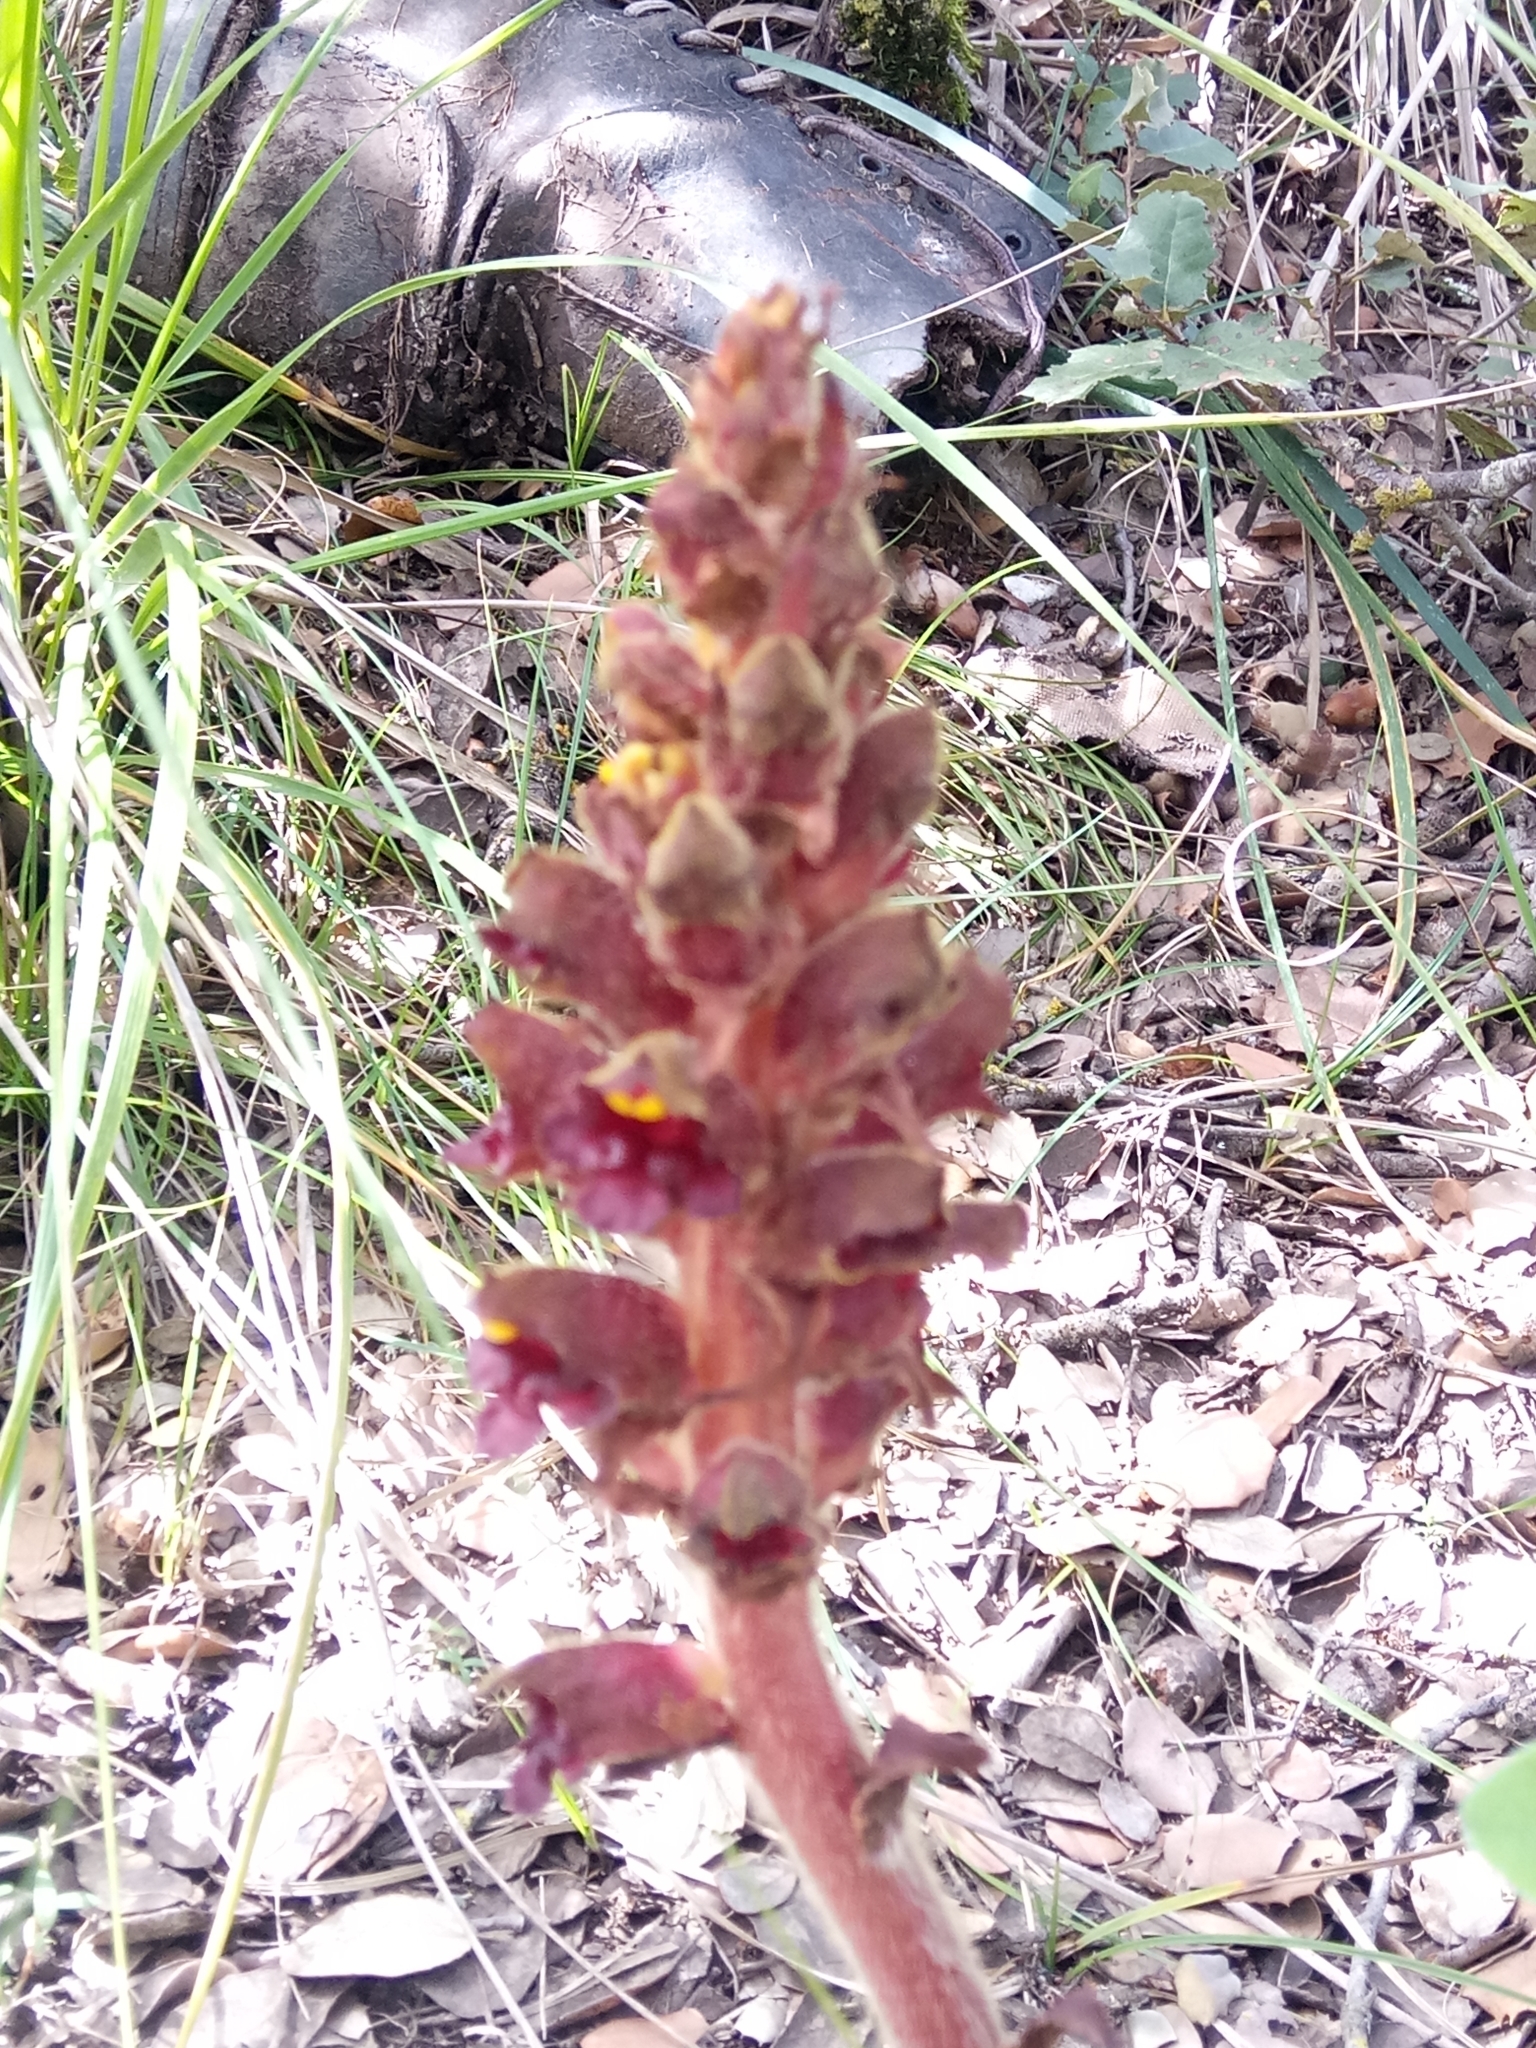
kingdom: Plantae
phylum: Tracheophyta
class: Magnoliopsida
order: Lamiales
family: Orobanchaceae
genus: Orobanche
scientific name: Orobanche variegata
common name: Variegated broomrape
